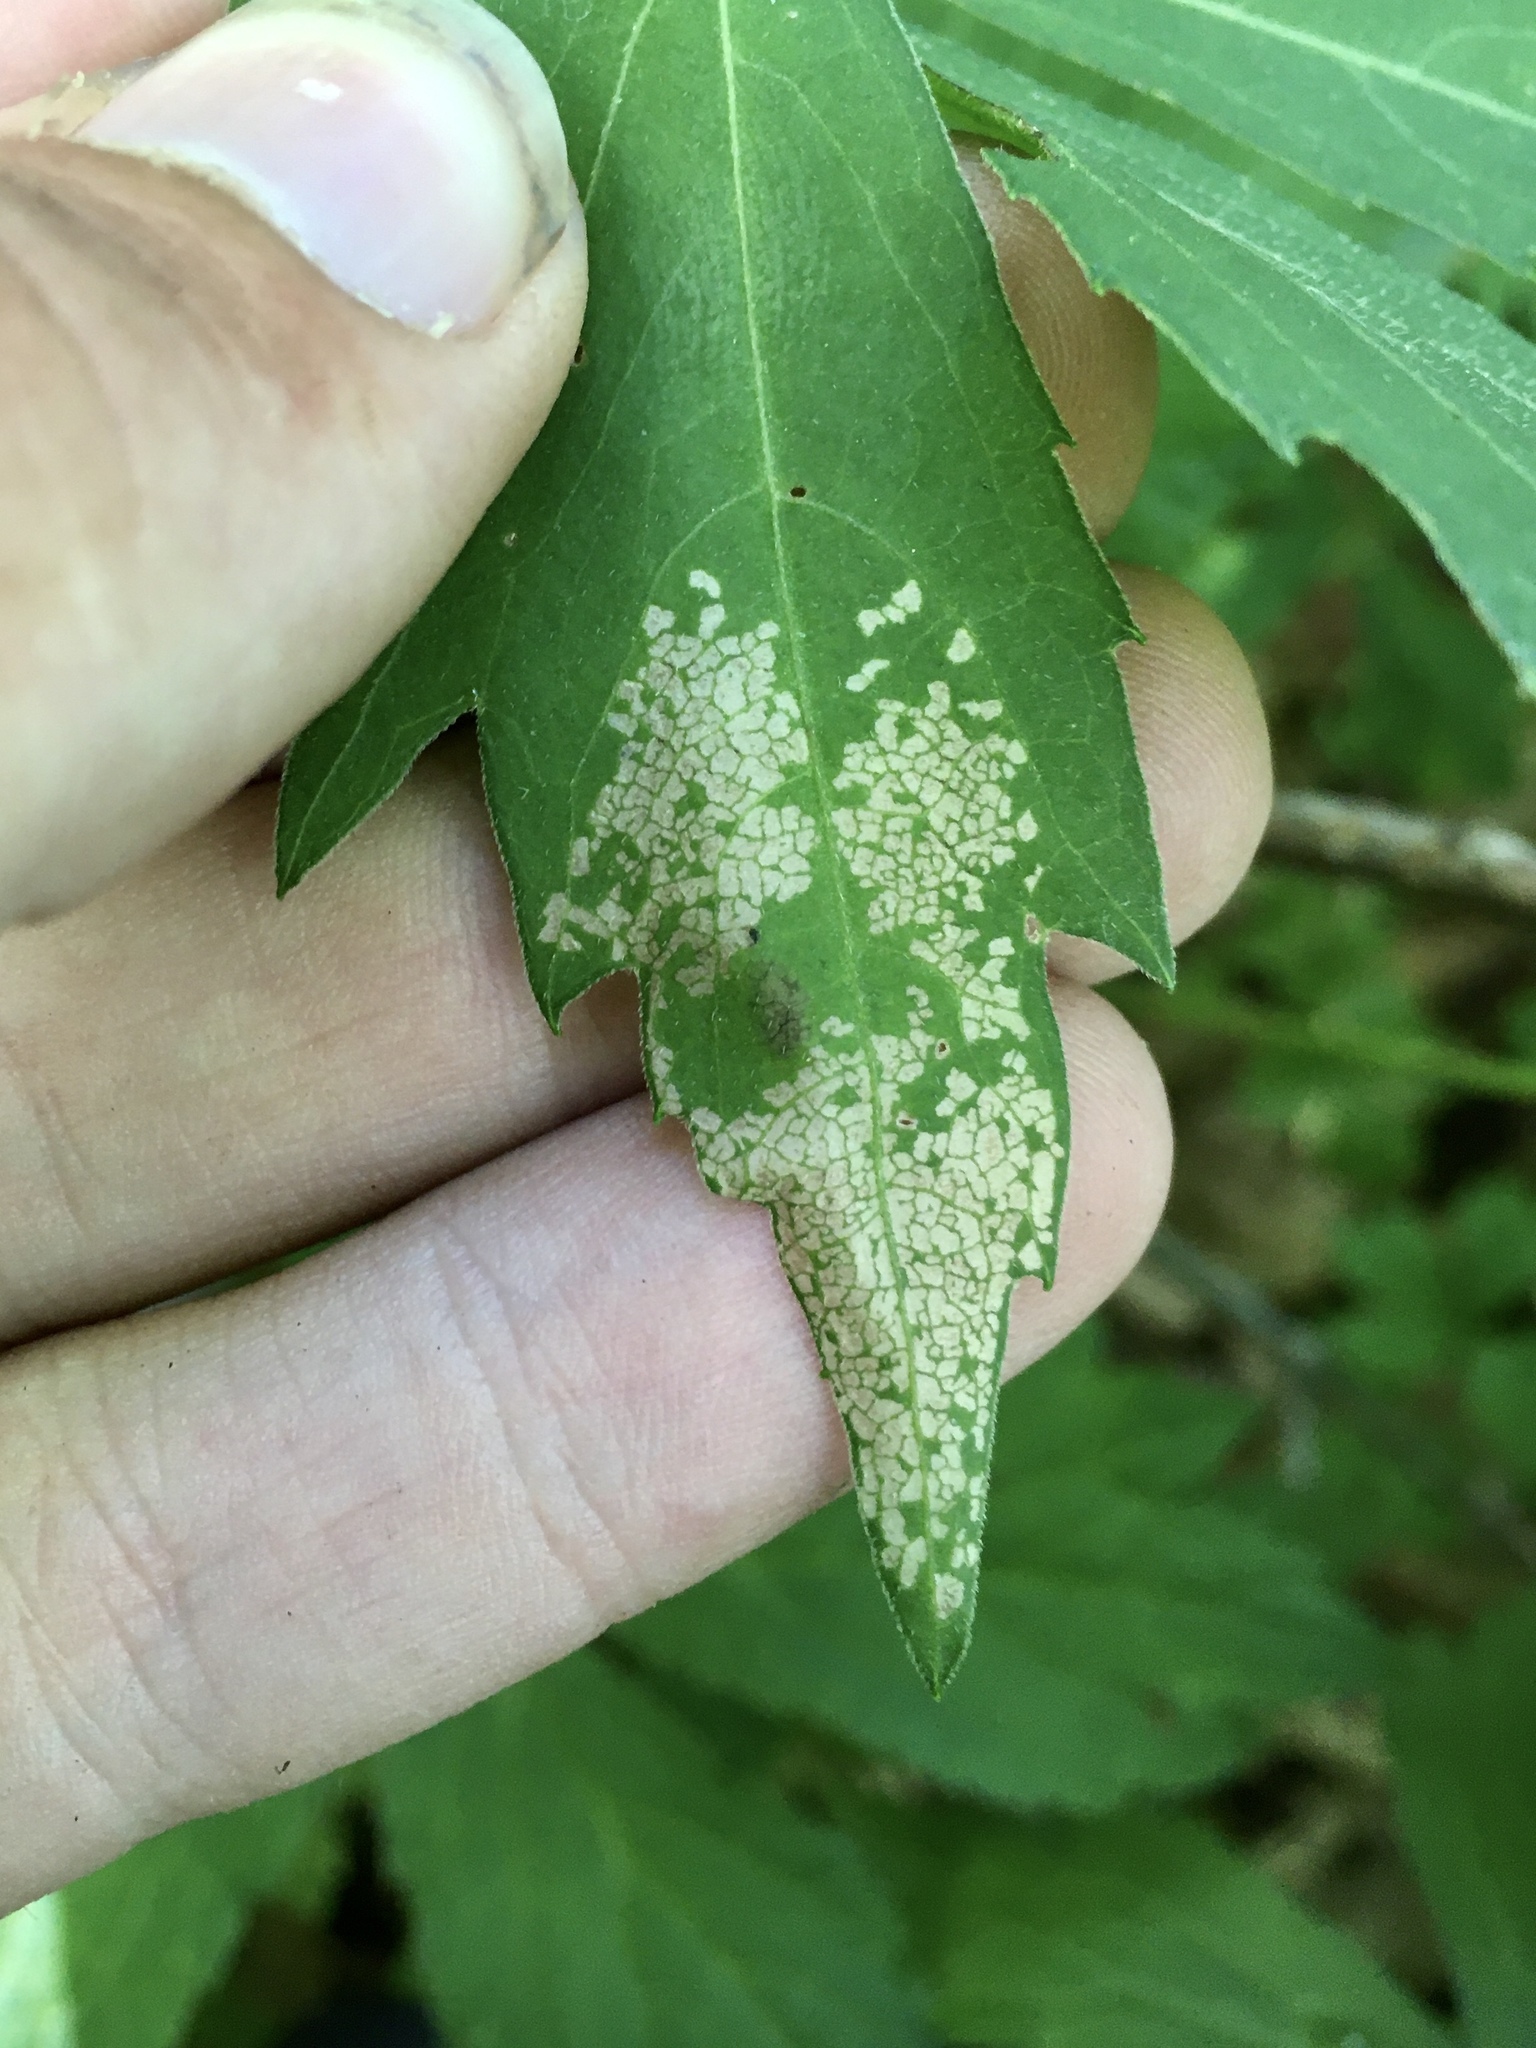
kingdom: Animalia
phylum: Arthropoda
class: Insecta
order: Lepidoptera
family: Gracillariidae
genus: Leucospilapteryx
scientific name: Leucospilapteryx venustella
